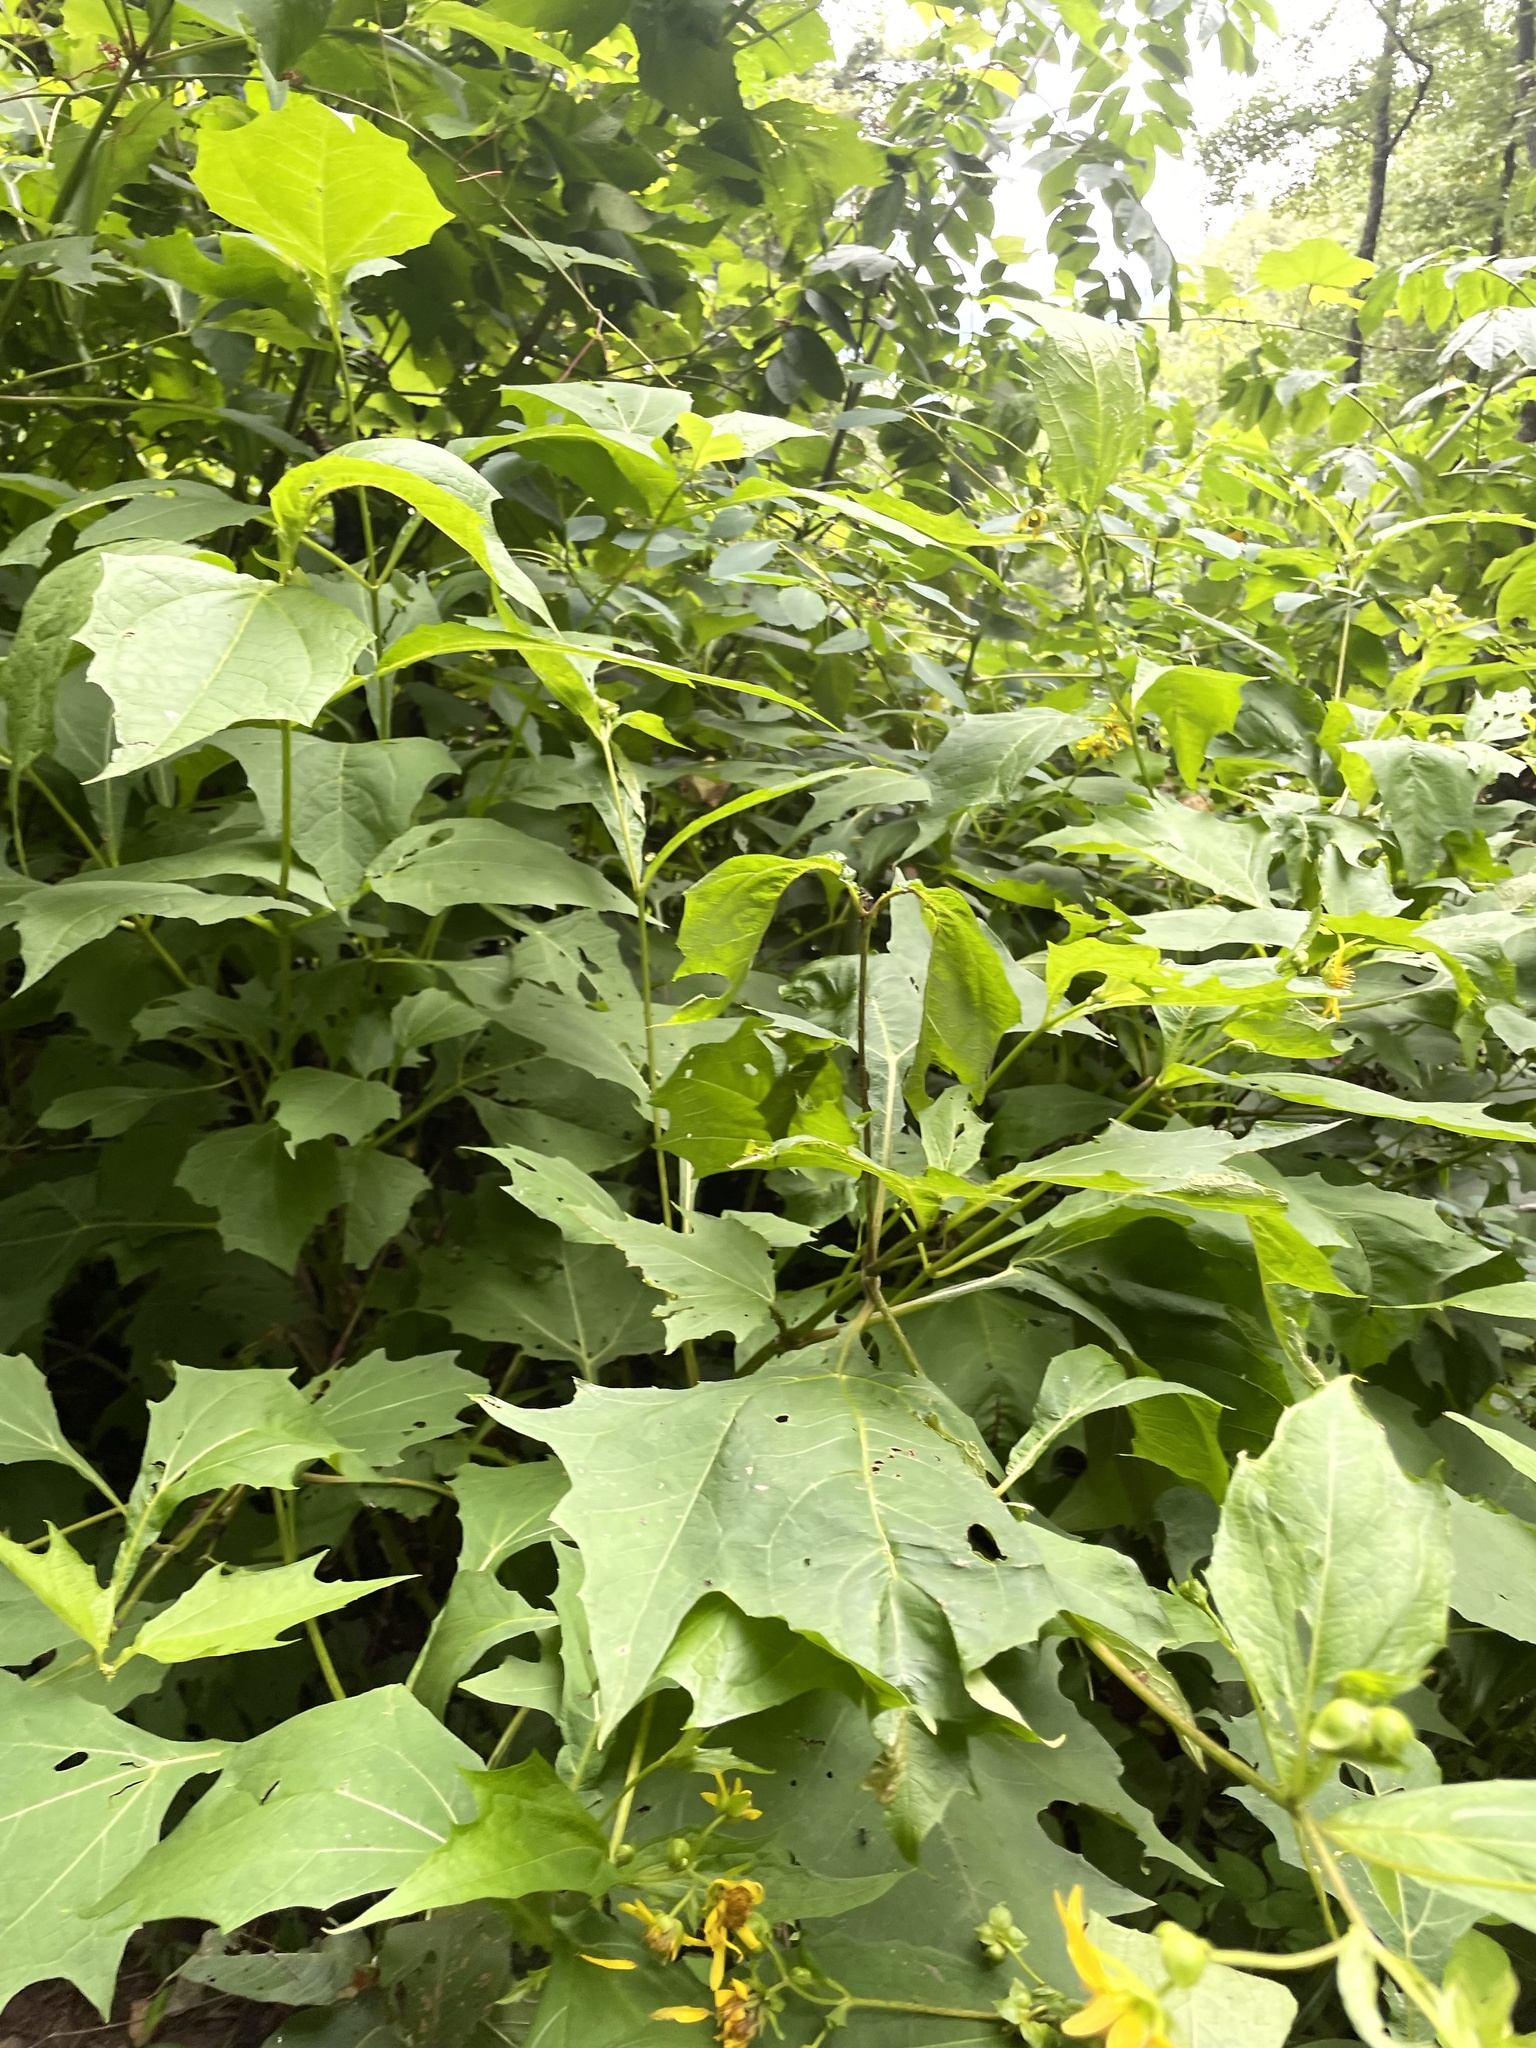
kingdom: Plantae
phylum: Tracheophyta
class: Magnoliopsida
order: Asterales
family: Asteraceae
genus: Smallanthus
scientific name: Smallanthus uvedalia
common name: Bear's-foot
